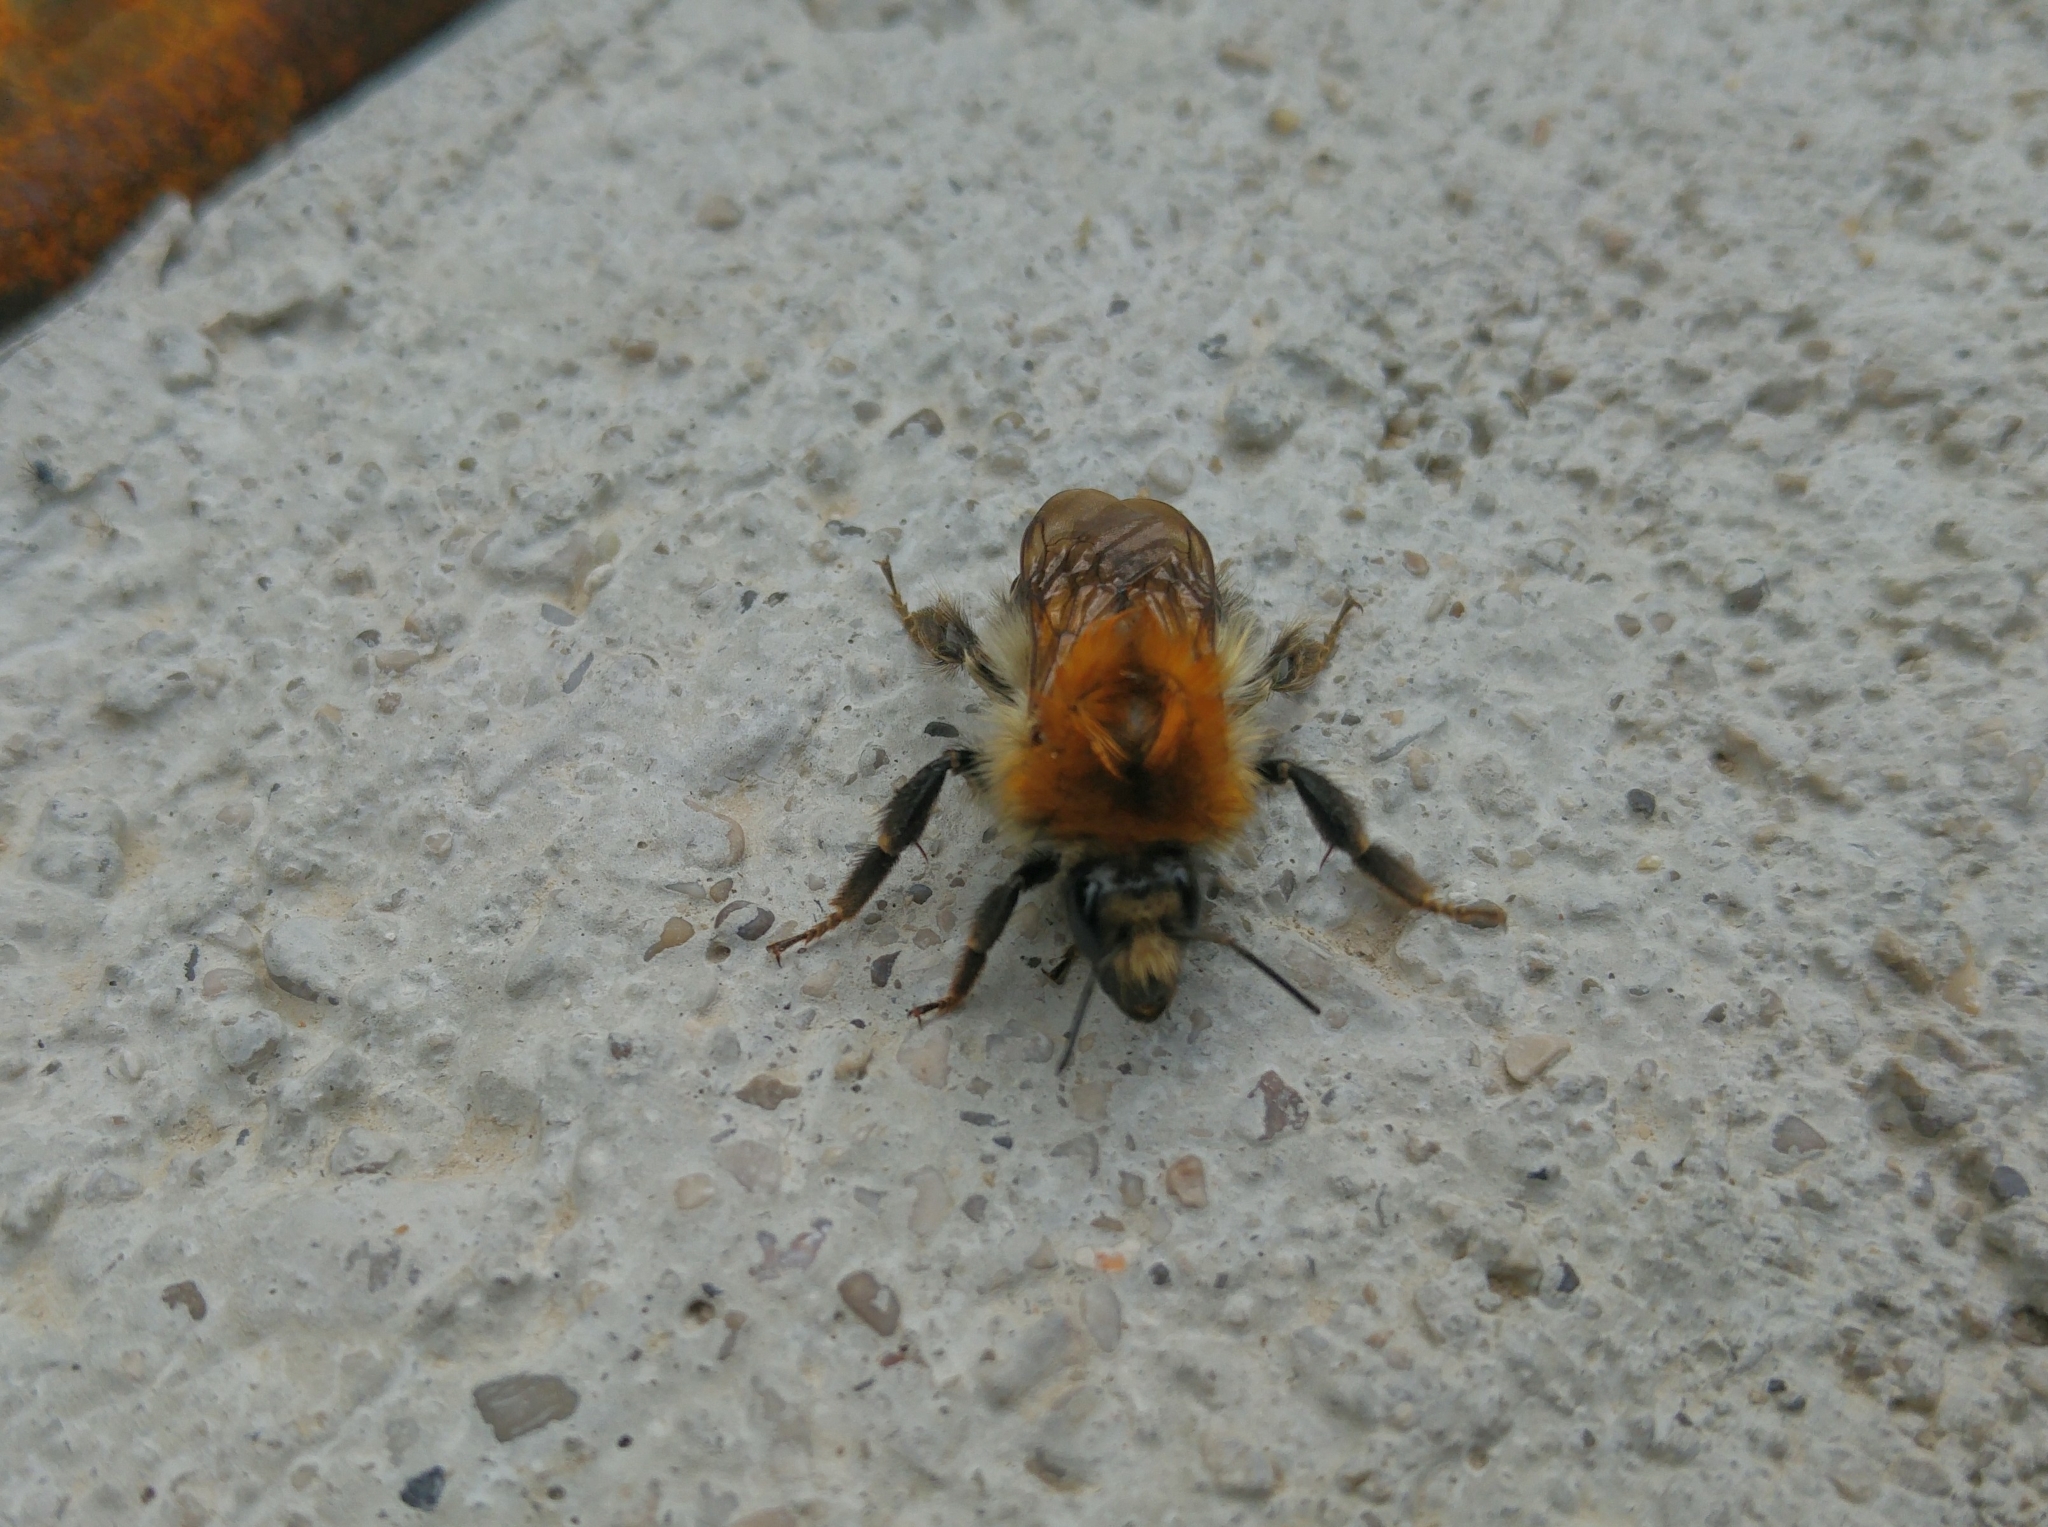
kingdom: Animalia
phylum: Arthropoda
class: Insecta
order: Hymenoptera
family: Apidae
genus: Bombus
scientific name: Bombus pascuorum
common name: Common carder bee
